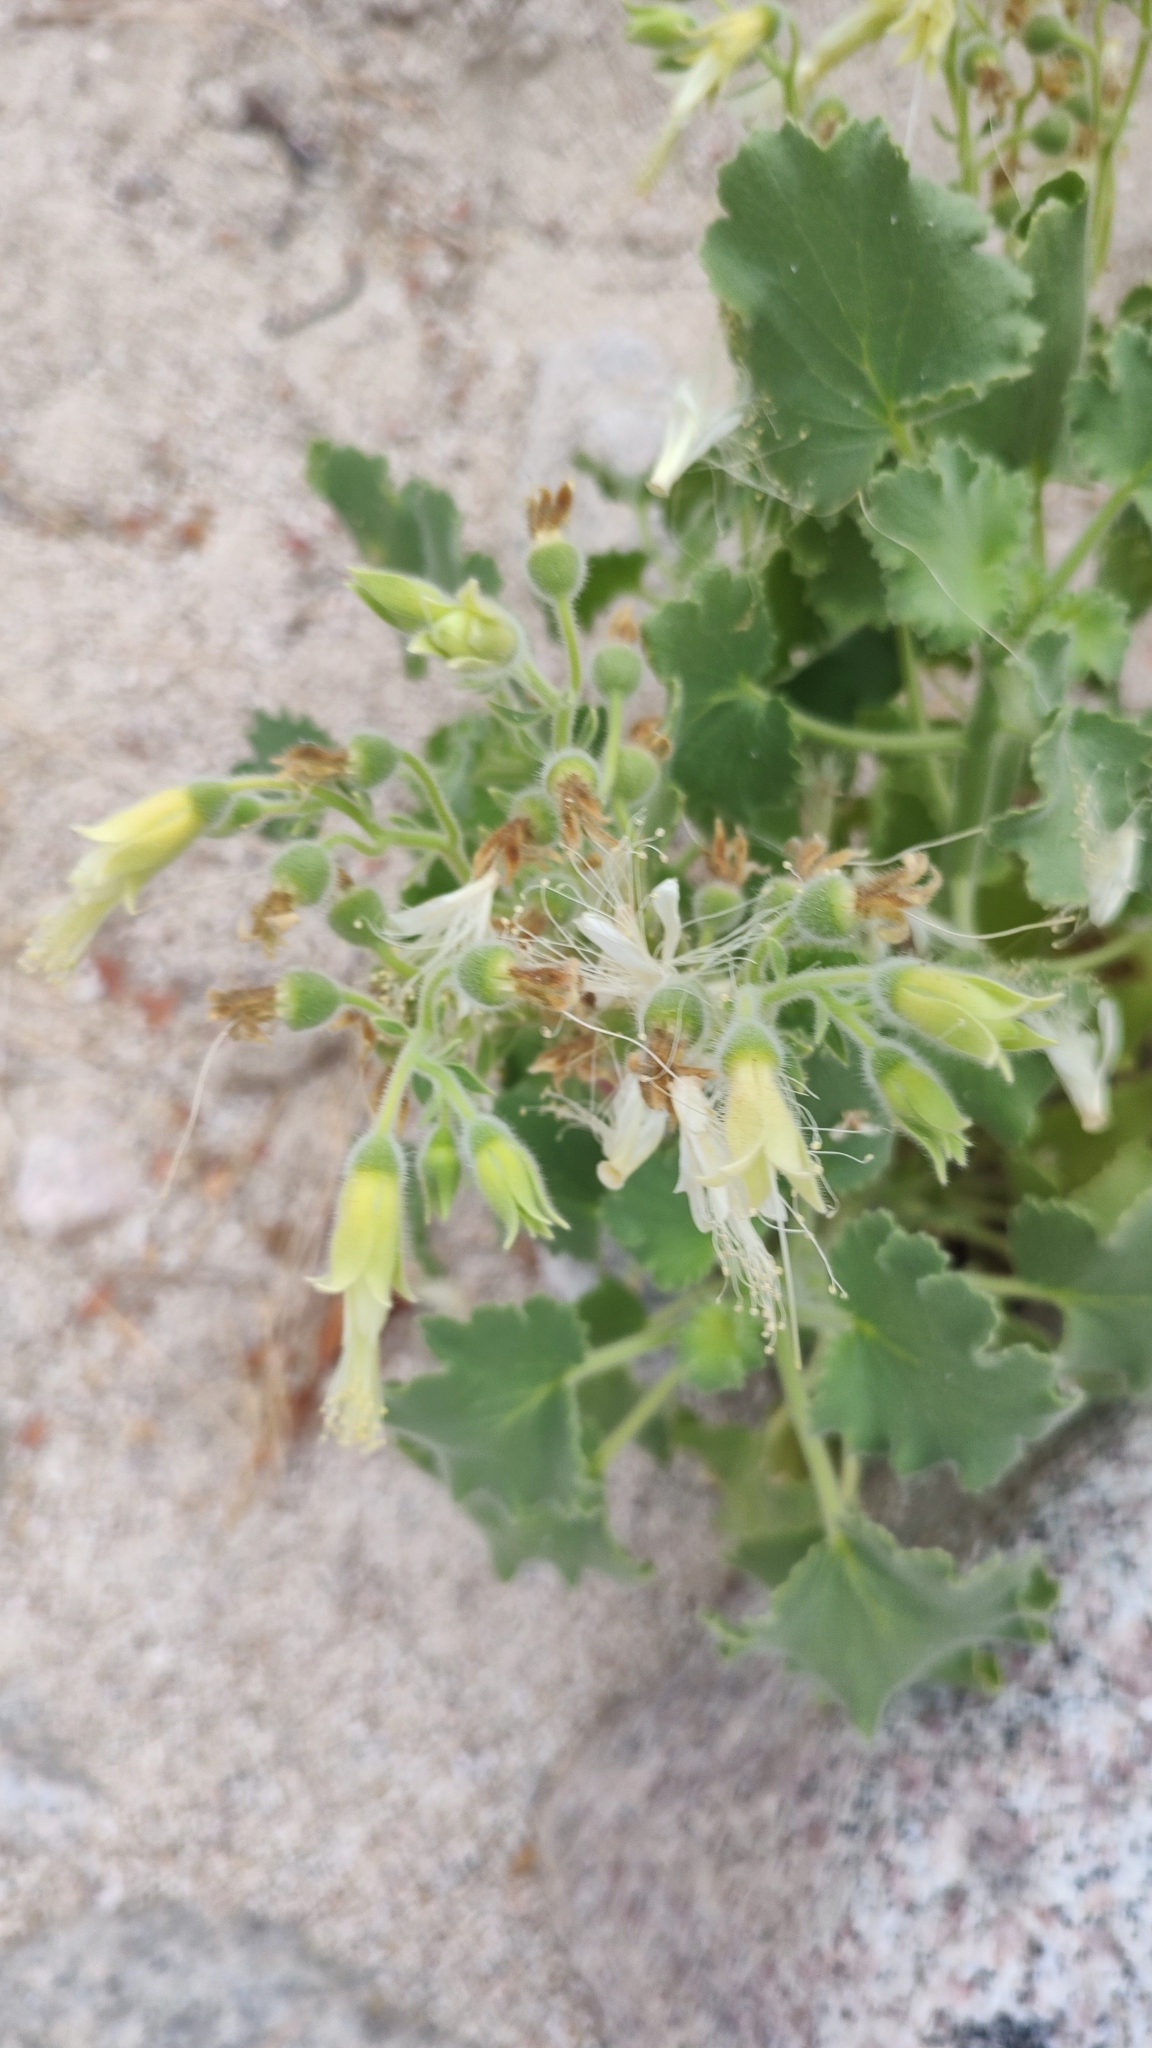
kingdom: Plantae
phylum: Tracheophyta
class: Magnoliopsida
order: Cornales
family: Loasaceae
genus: Eucnide
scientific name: Eucnide cordata
